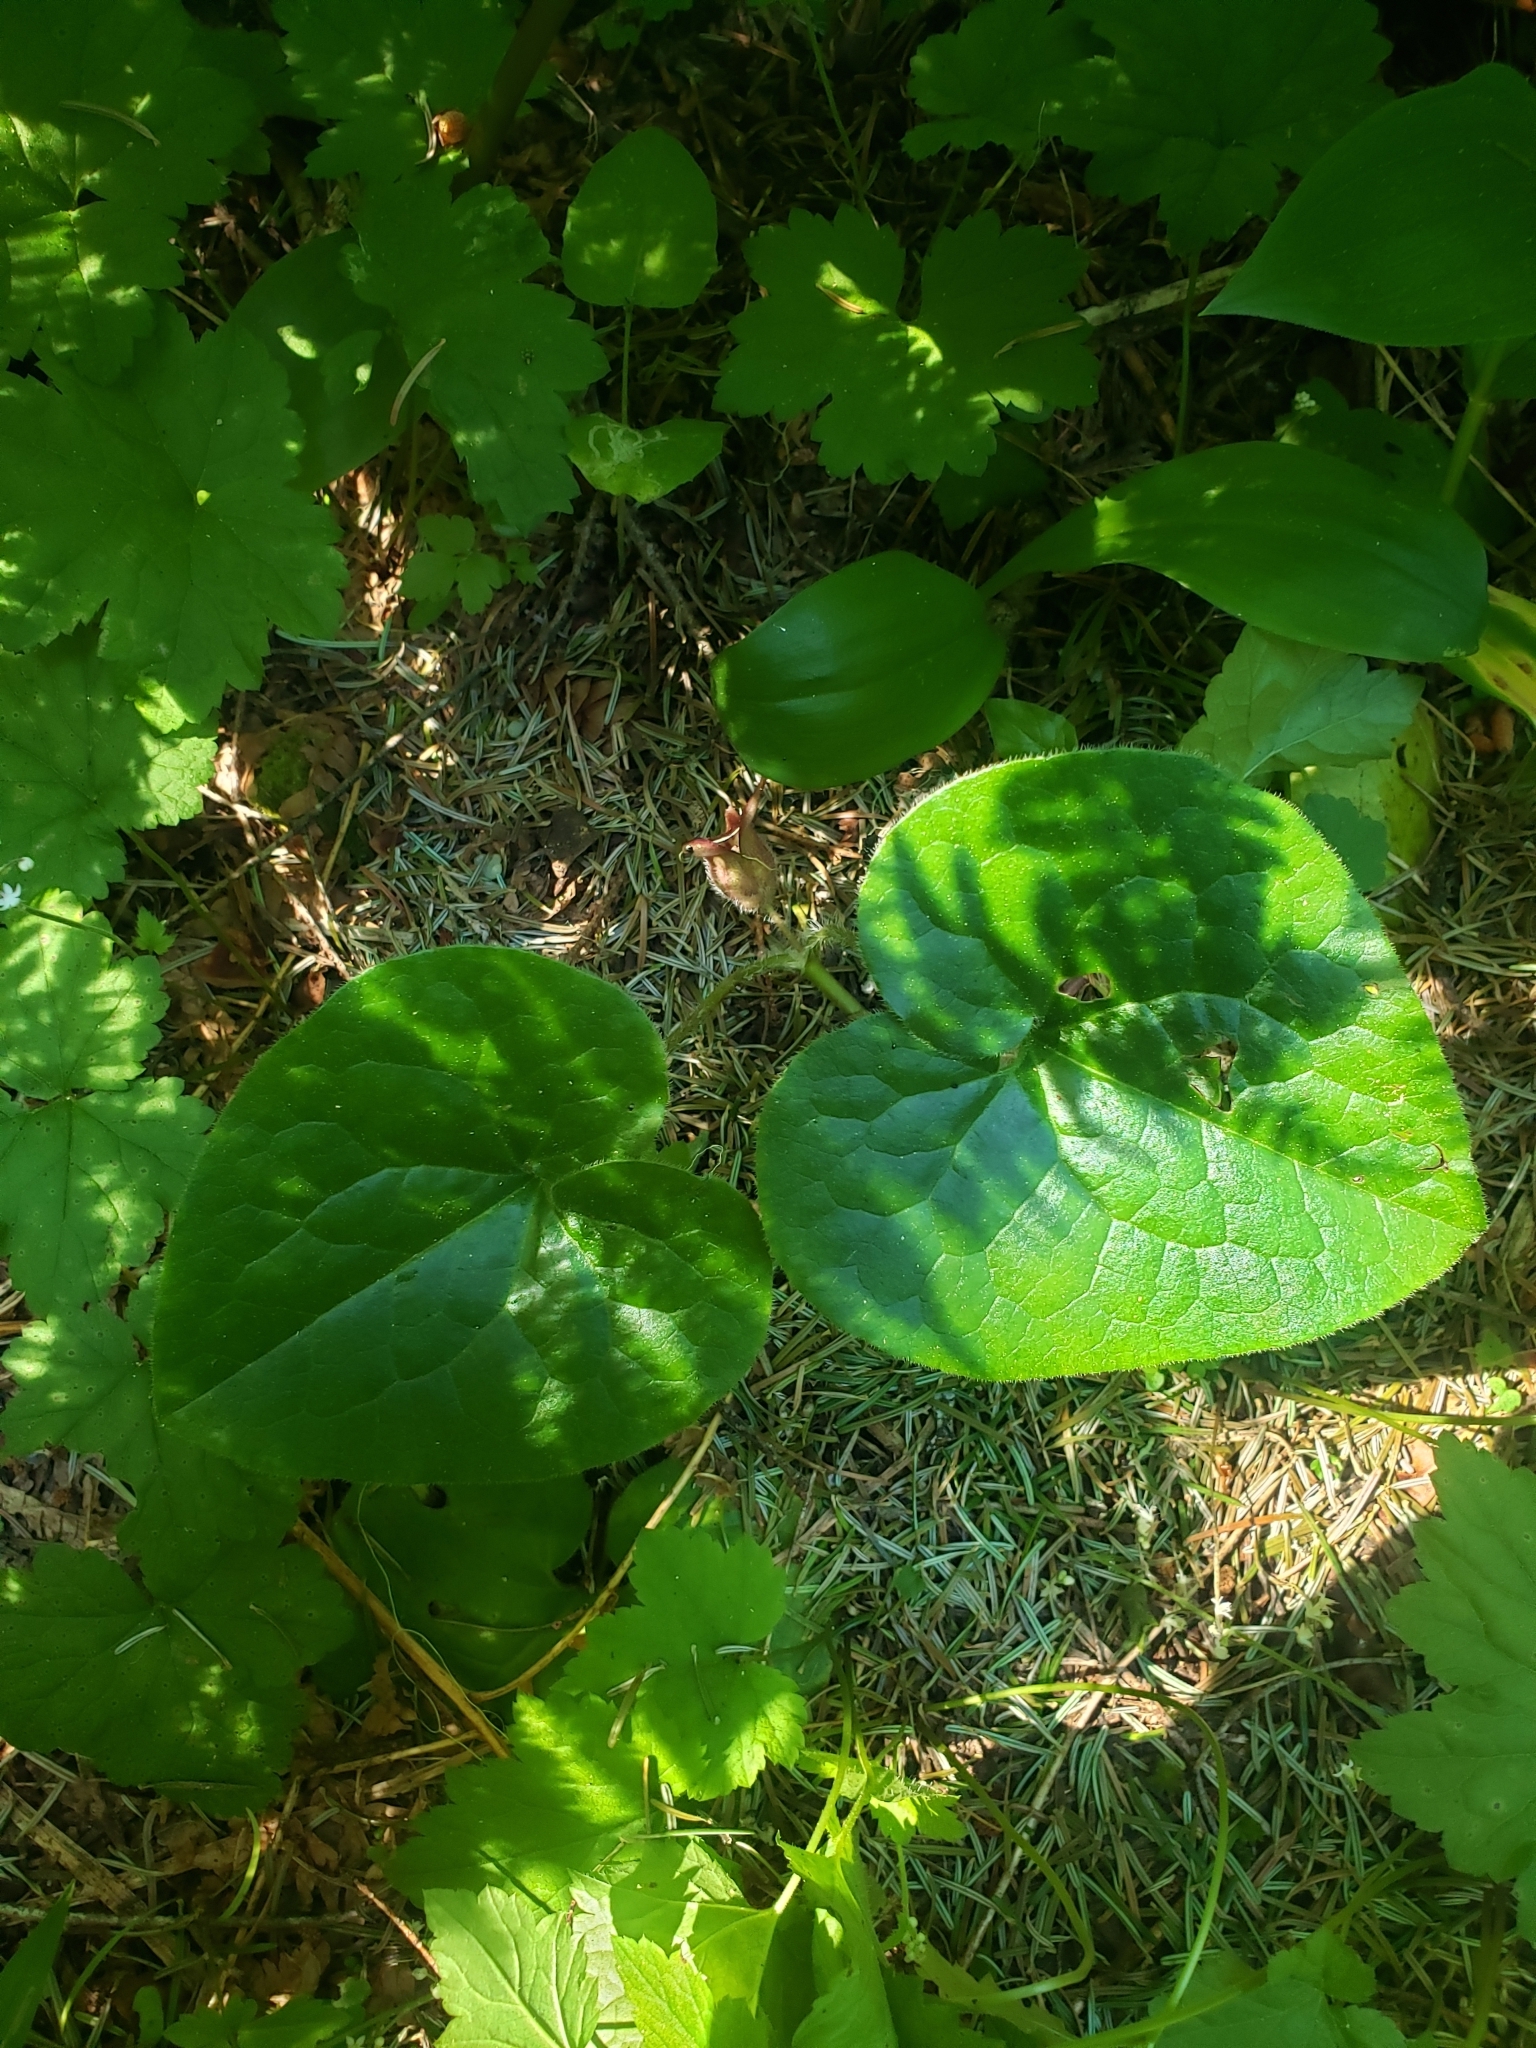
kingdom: Plantae
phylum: Tracheophyta
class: Magnoliopsida
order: Piperales
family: Aristolochiaceae
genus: Asarum
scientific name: Asarum caudatum
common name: Wild ginger
